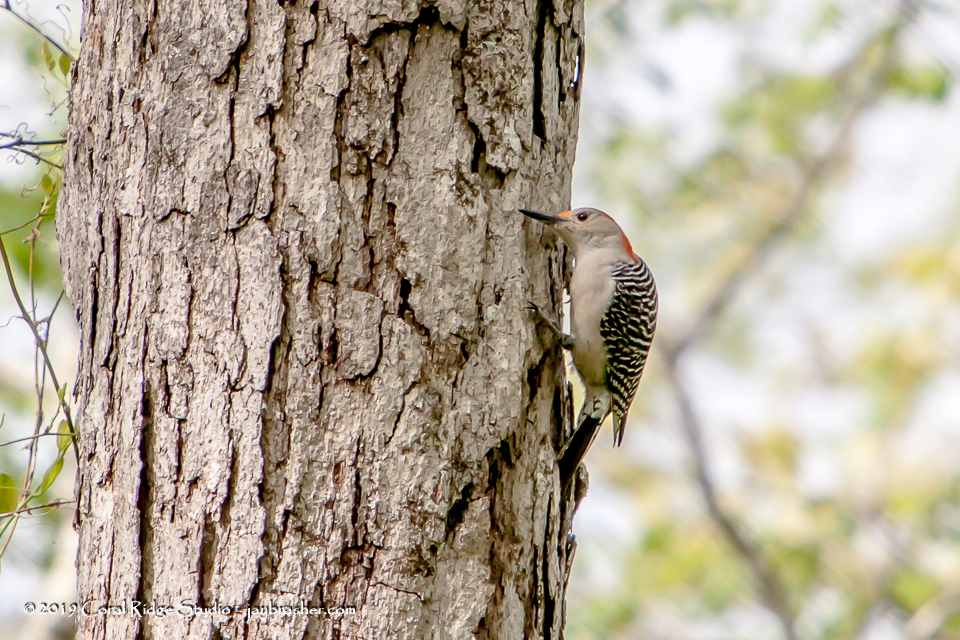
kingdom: Animalia
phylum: Chordata
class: Aves
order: Piciformes
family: Picidae
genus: Melanerpes
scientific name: Melanerpes carolinus
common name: Red-bellied woodpecker
